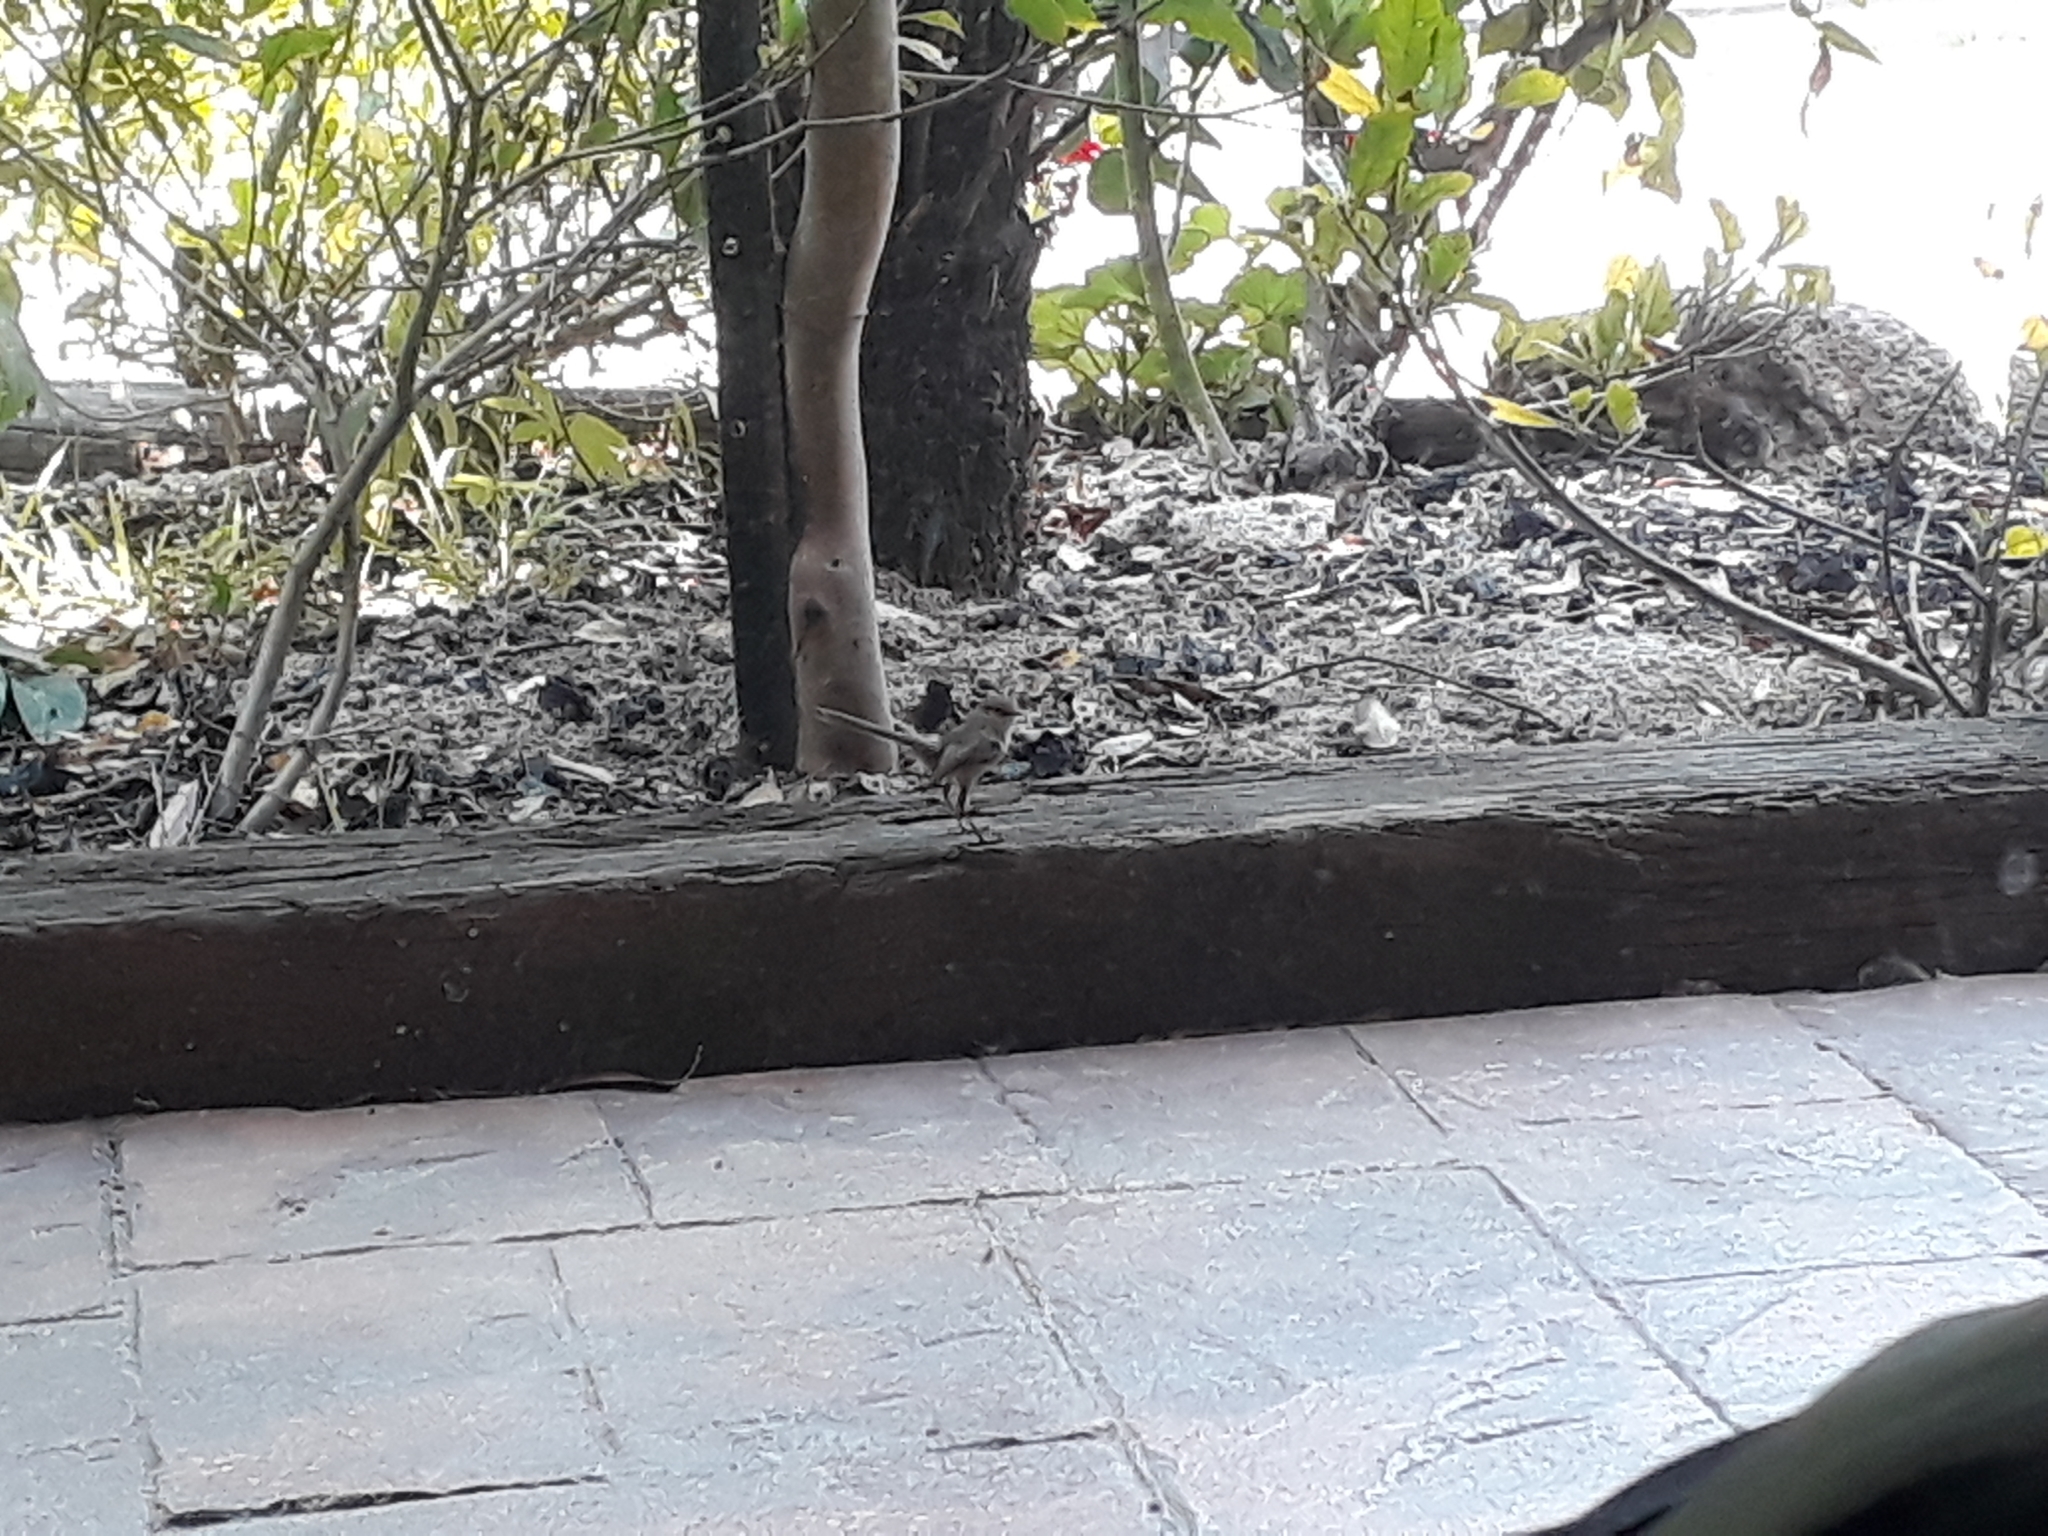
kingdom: Animalia
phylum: Chordata
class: Aves
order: Passeriformes
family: Maluridae
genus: Malurus
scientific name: Malurus cyaneus
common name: Superb fairywren
